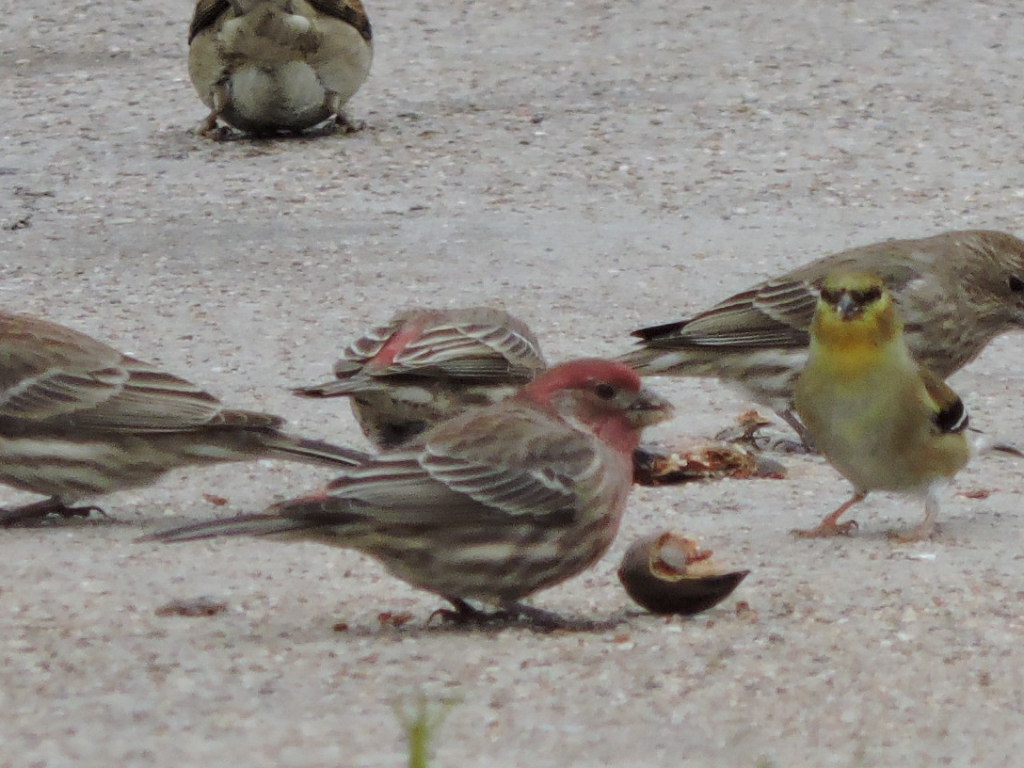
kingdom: Animalia
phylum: Chordata
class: Aves
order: Passeriformes
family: Fringillidae
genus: Haemorhous
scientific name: Haemorhous mexicanus
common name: House finch
